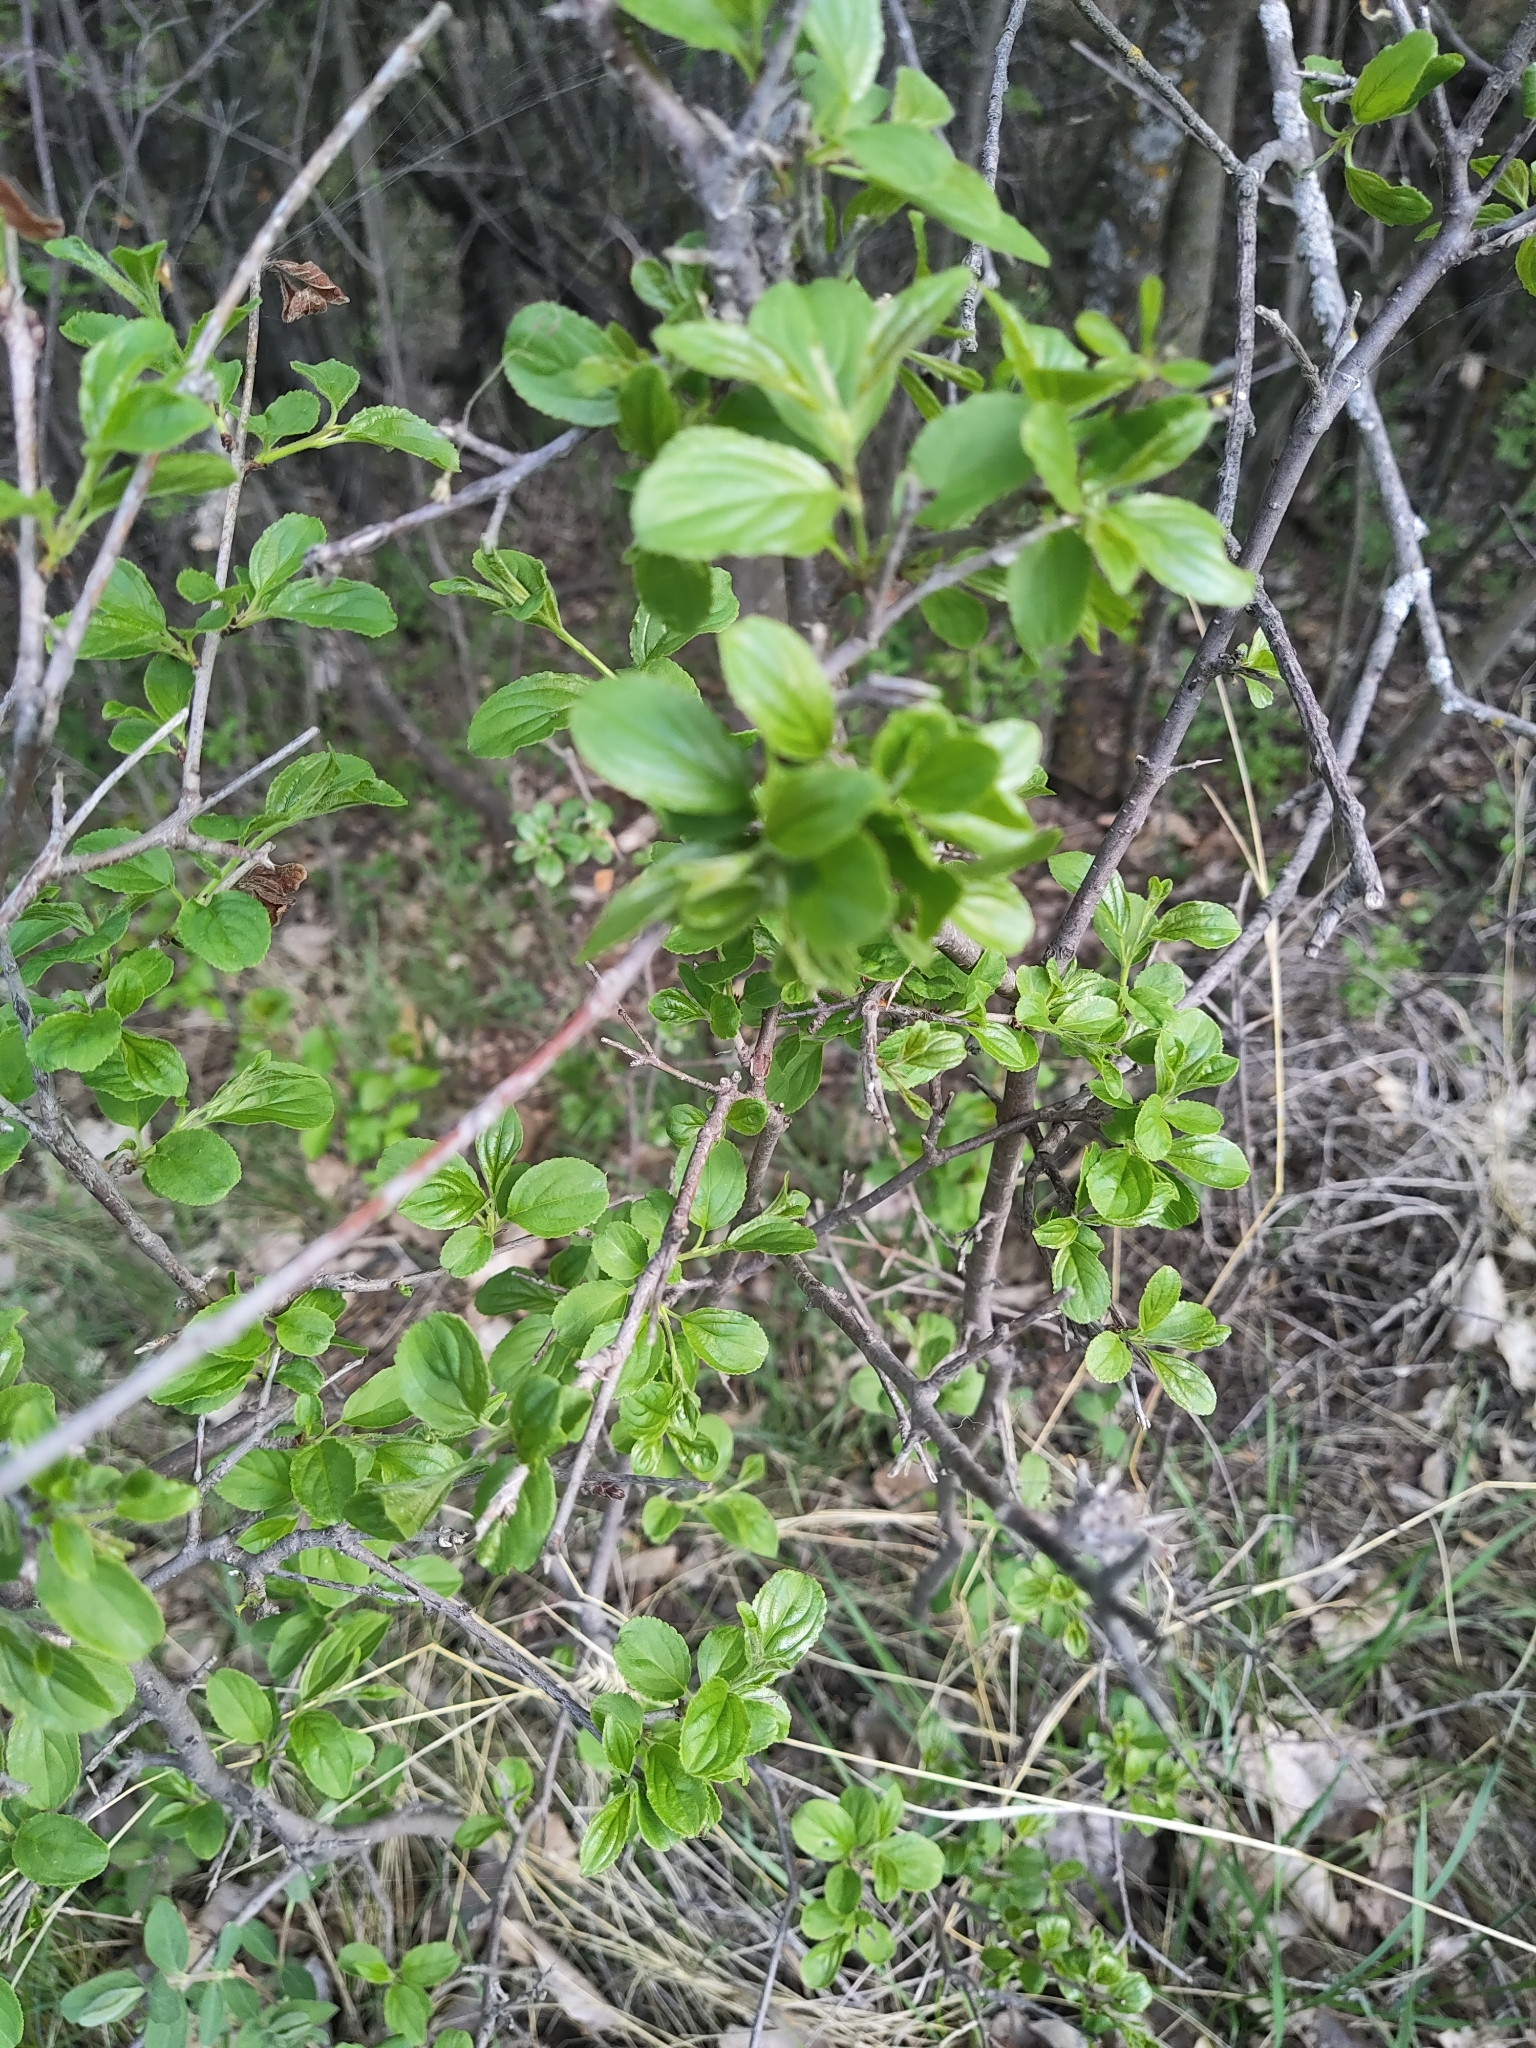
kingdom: Plantae
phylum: Tracheophyta
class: Magnoliopsida
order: Rosales
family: Rhamnaceae
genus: Rhamnus
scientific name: Rhamnus cathartica
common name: Common buckthorn
